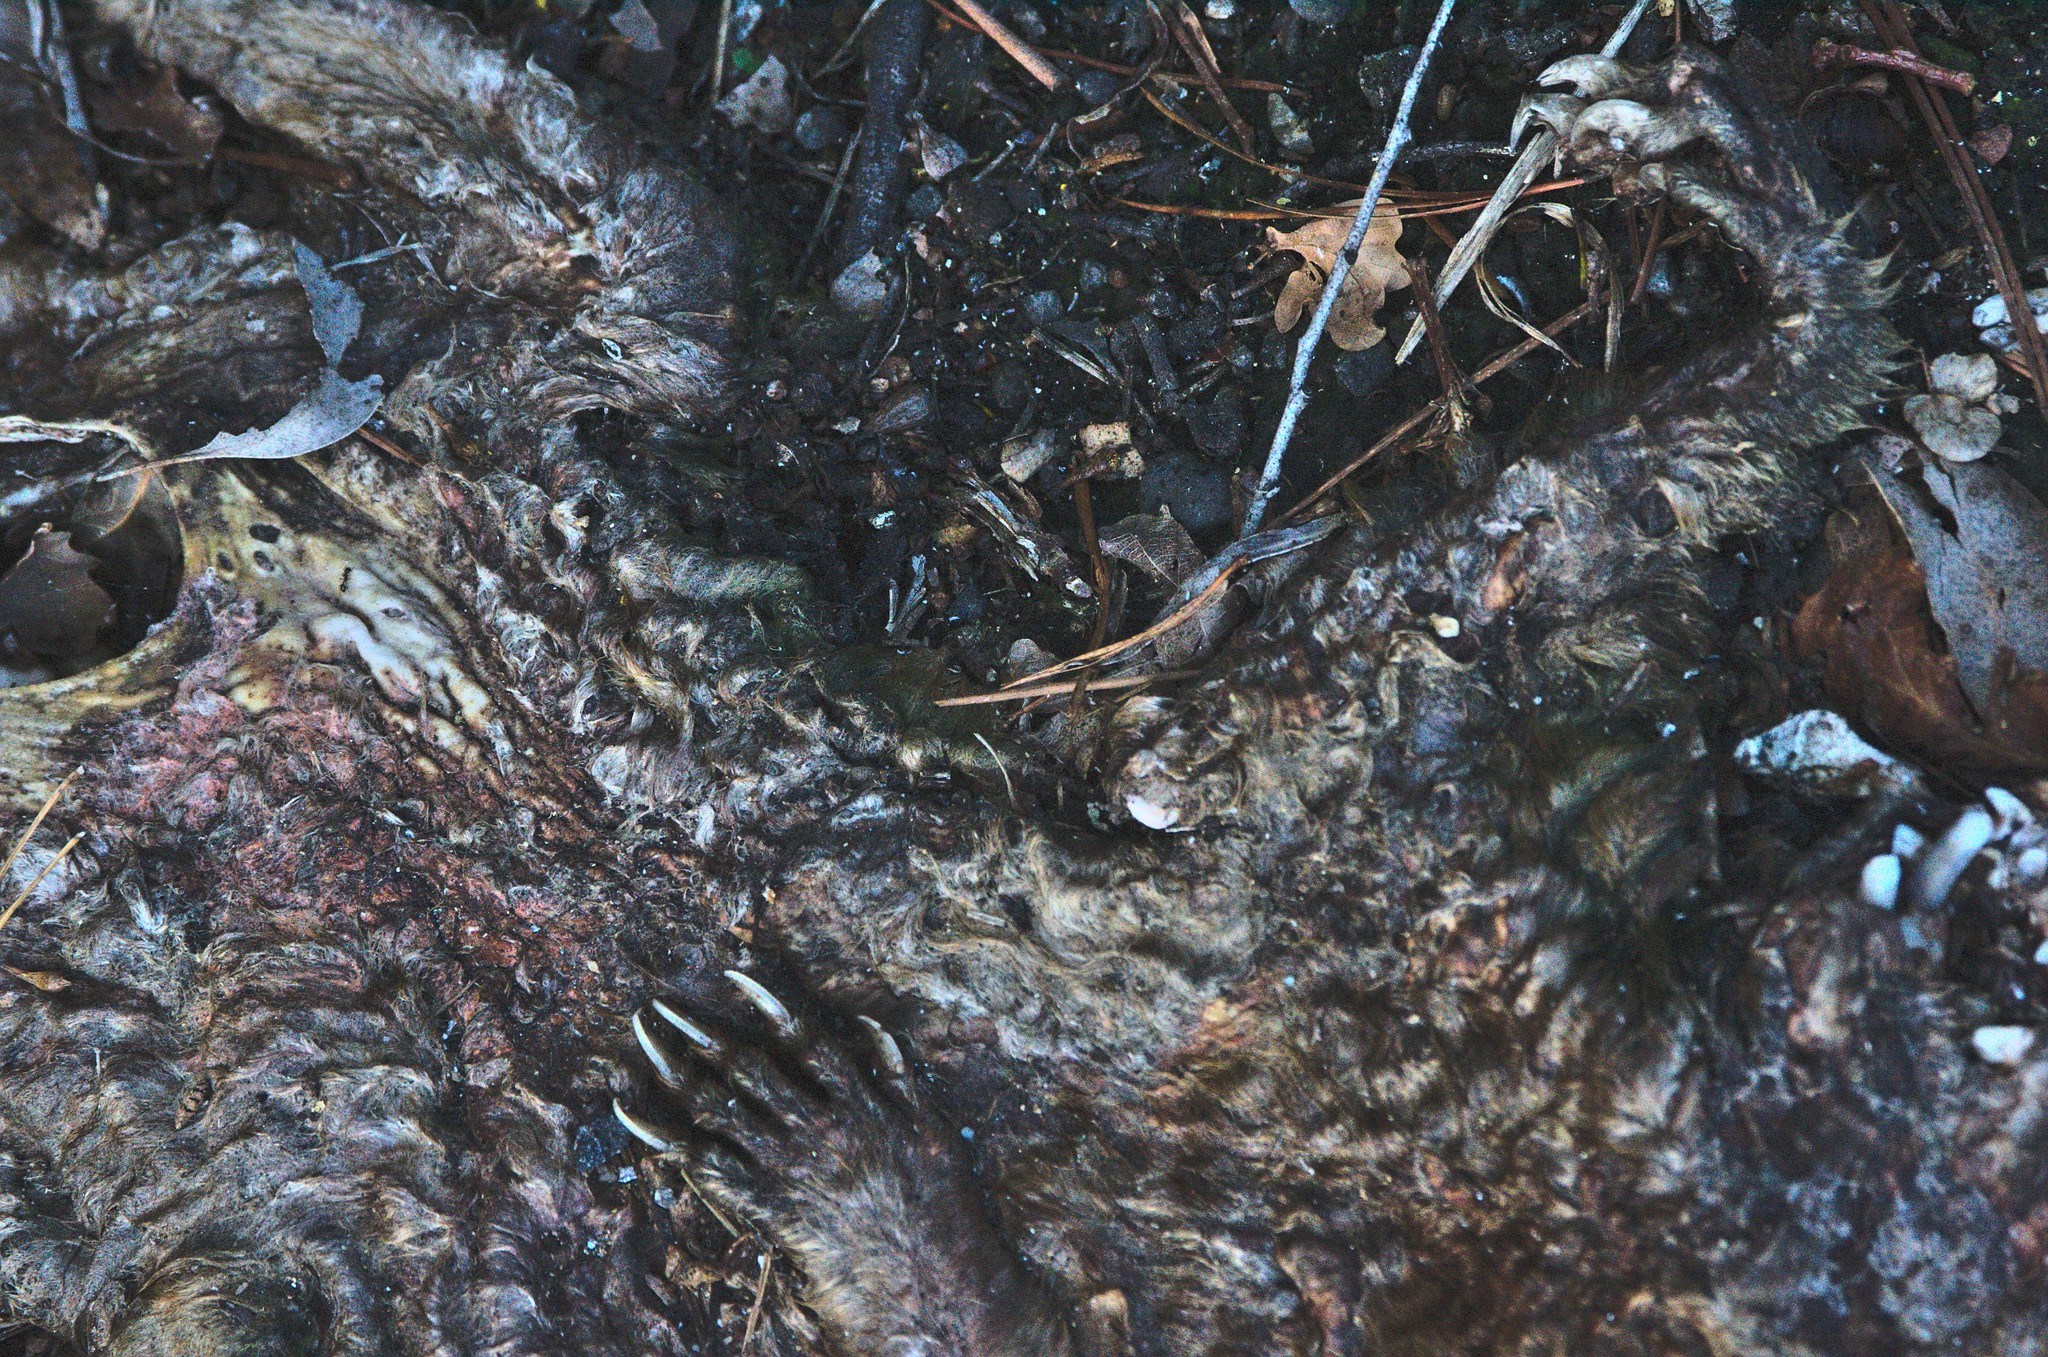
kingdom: Animalia
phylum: Chordata
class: Mammalia
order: Diprotodontia
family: Phalangeridae
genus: Trichosurus
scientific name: Trichosurus vulpecula
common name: Common brushtail
